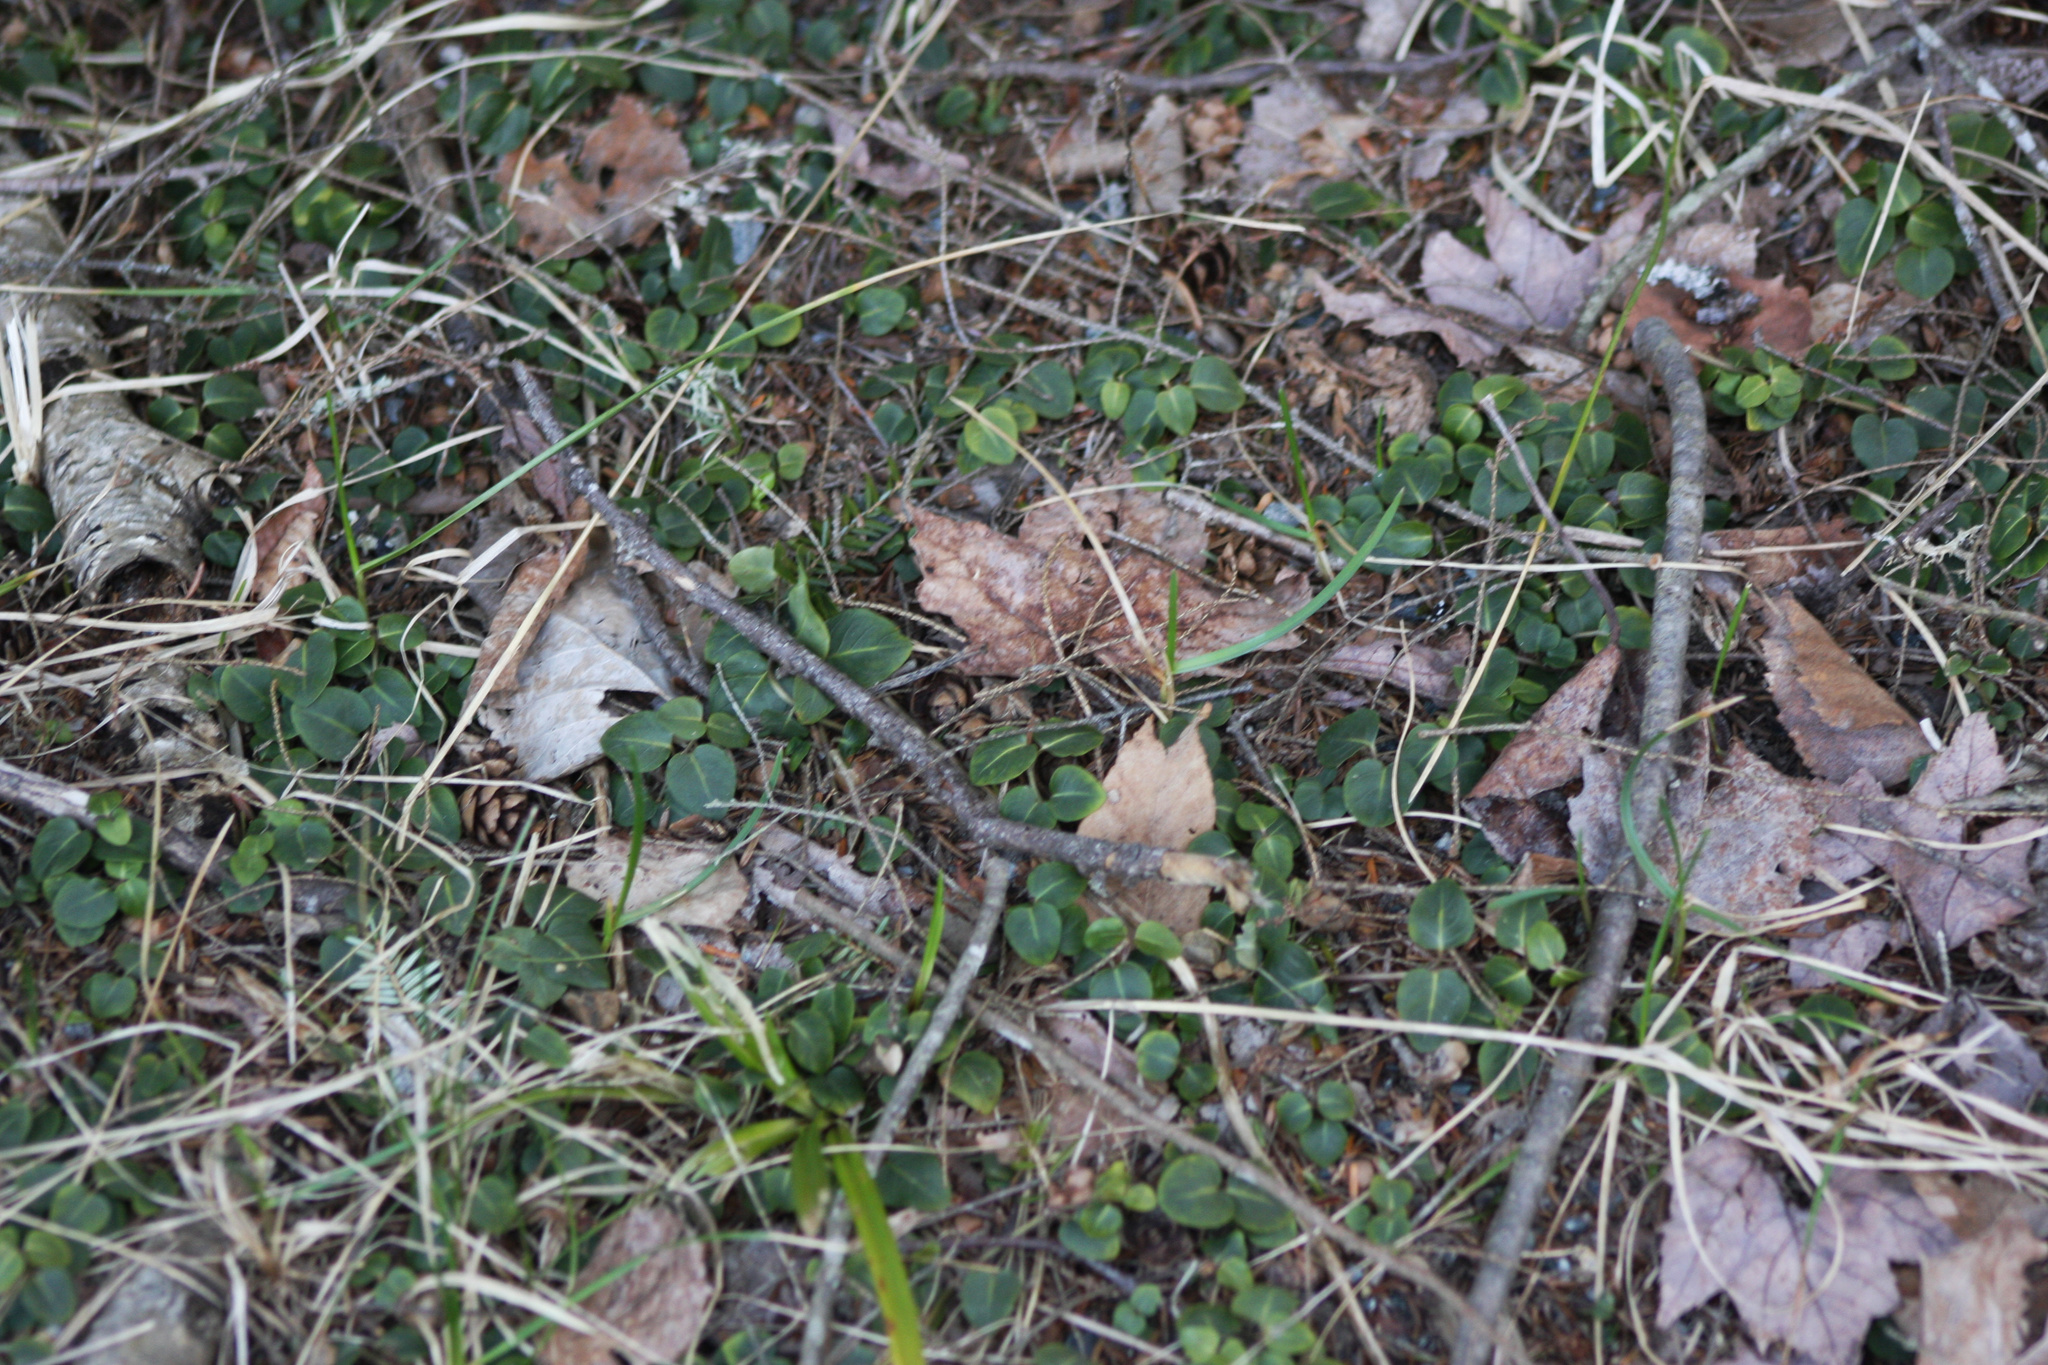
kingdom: Plantae
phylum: Tracheophyta
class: Magnoliopsida
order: Gentianales
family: Rubiaceae
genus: Mitchella
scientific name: Mitchella repens
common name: Partridge-berry
